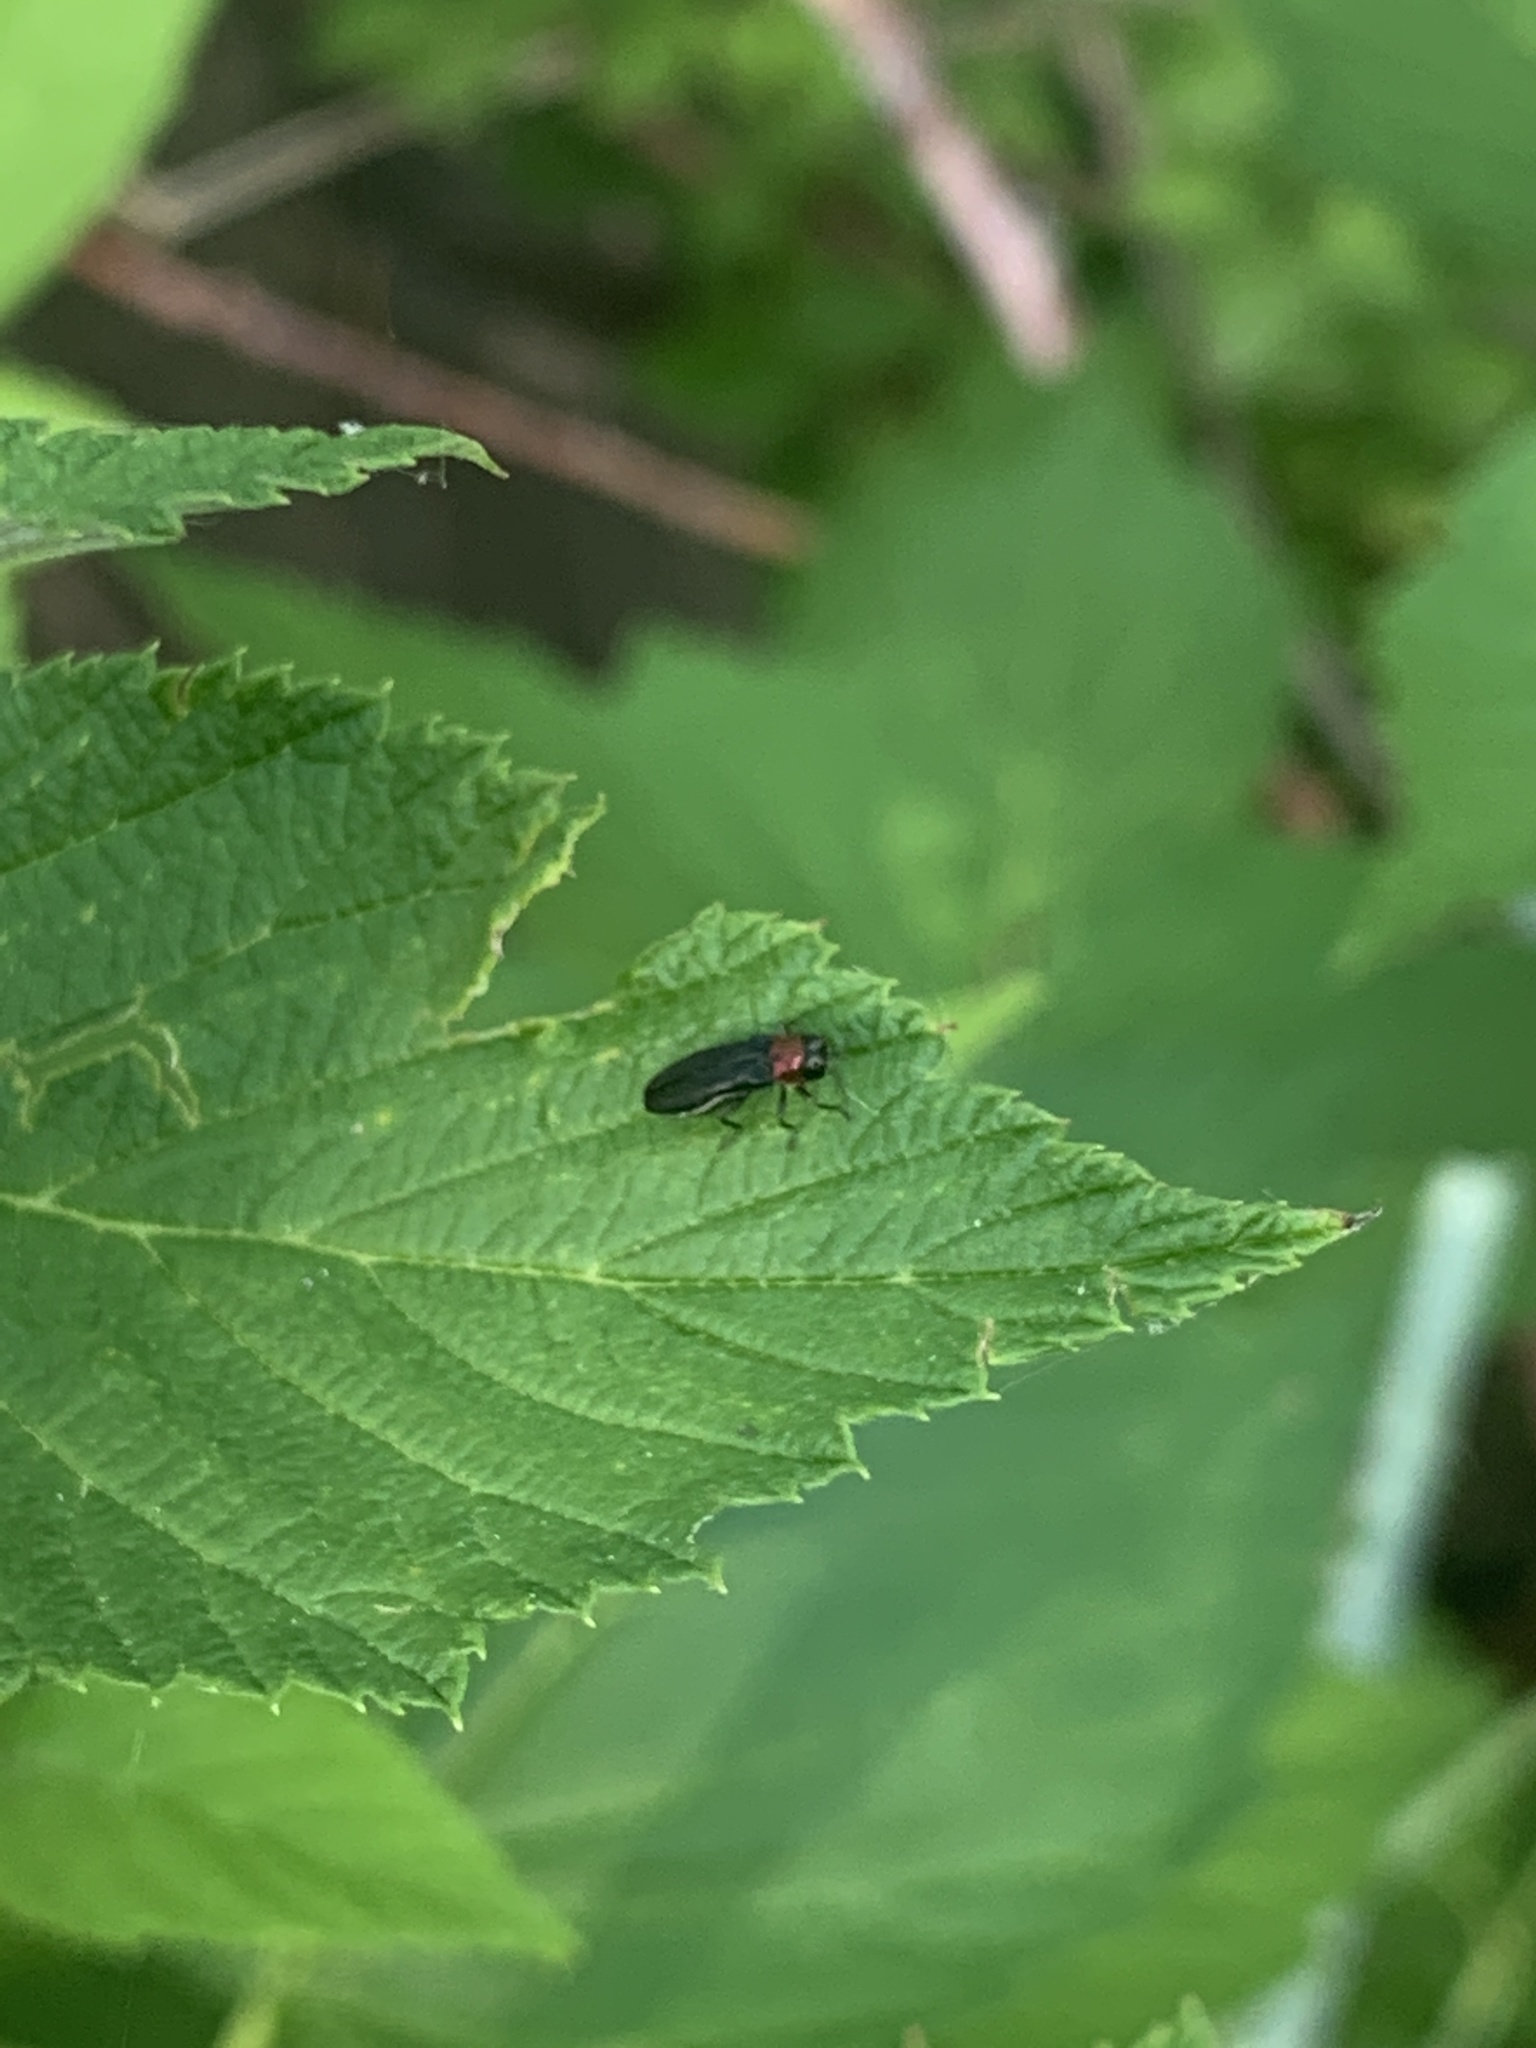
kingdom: Animalia
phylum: Arthropoda
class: Insecta
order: Coleoptera
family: Buprestidae
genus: Agrilus
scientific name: Agrilus ruficollis
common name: Red-necked cane borer beetle
